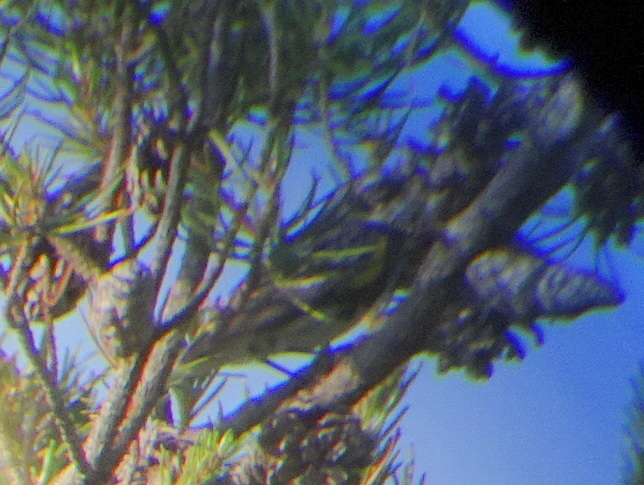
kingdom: Animalia
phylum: Chordata
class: Aves
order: Passeriformes
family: Parulidae
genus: Setophaga
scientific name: Setophaga coronata
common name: Myrtle warbler
